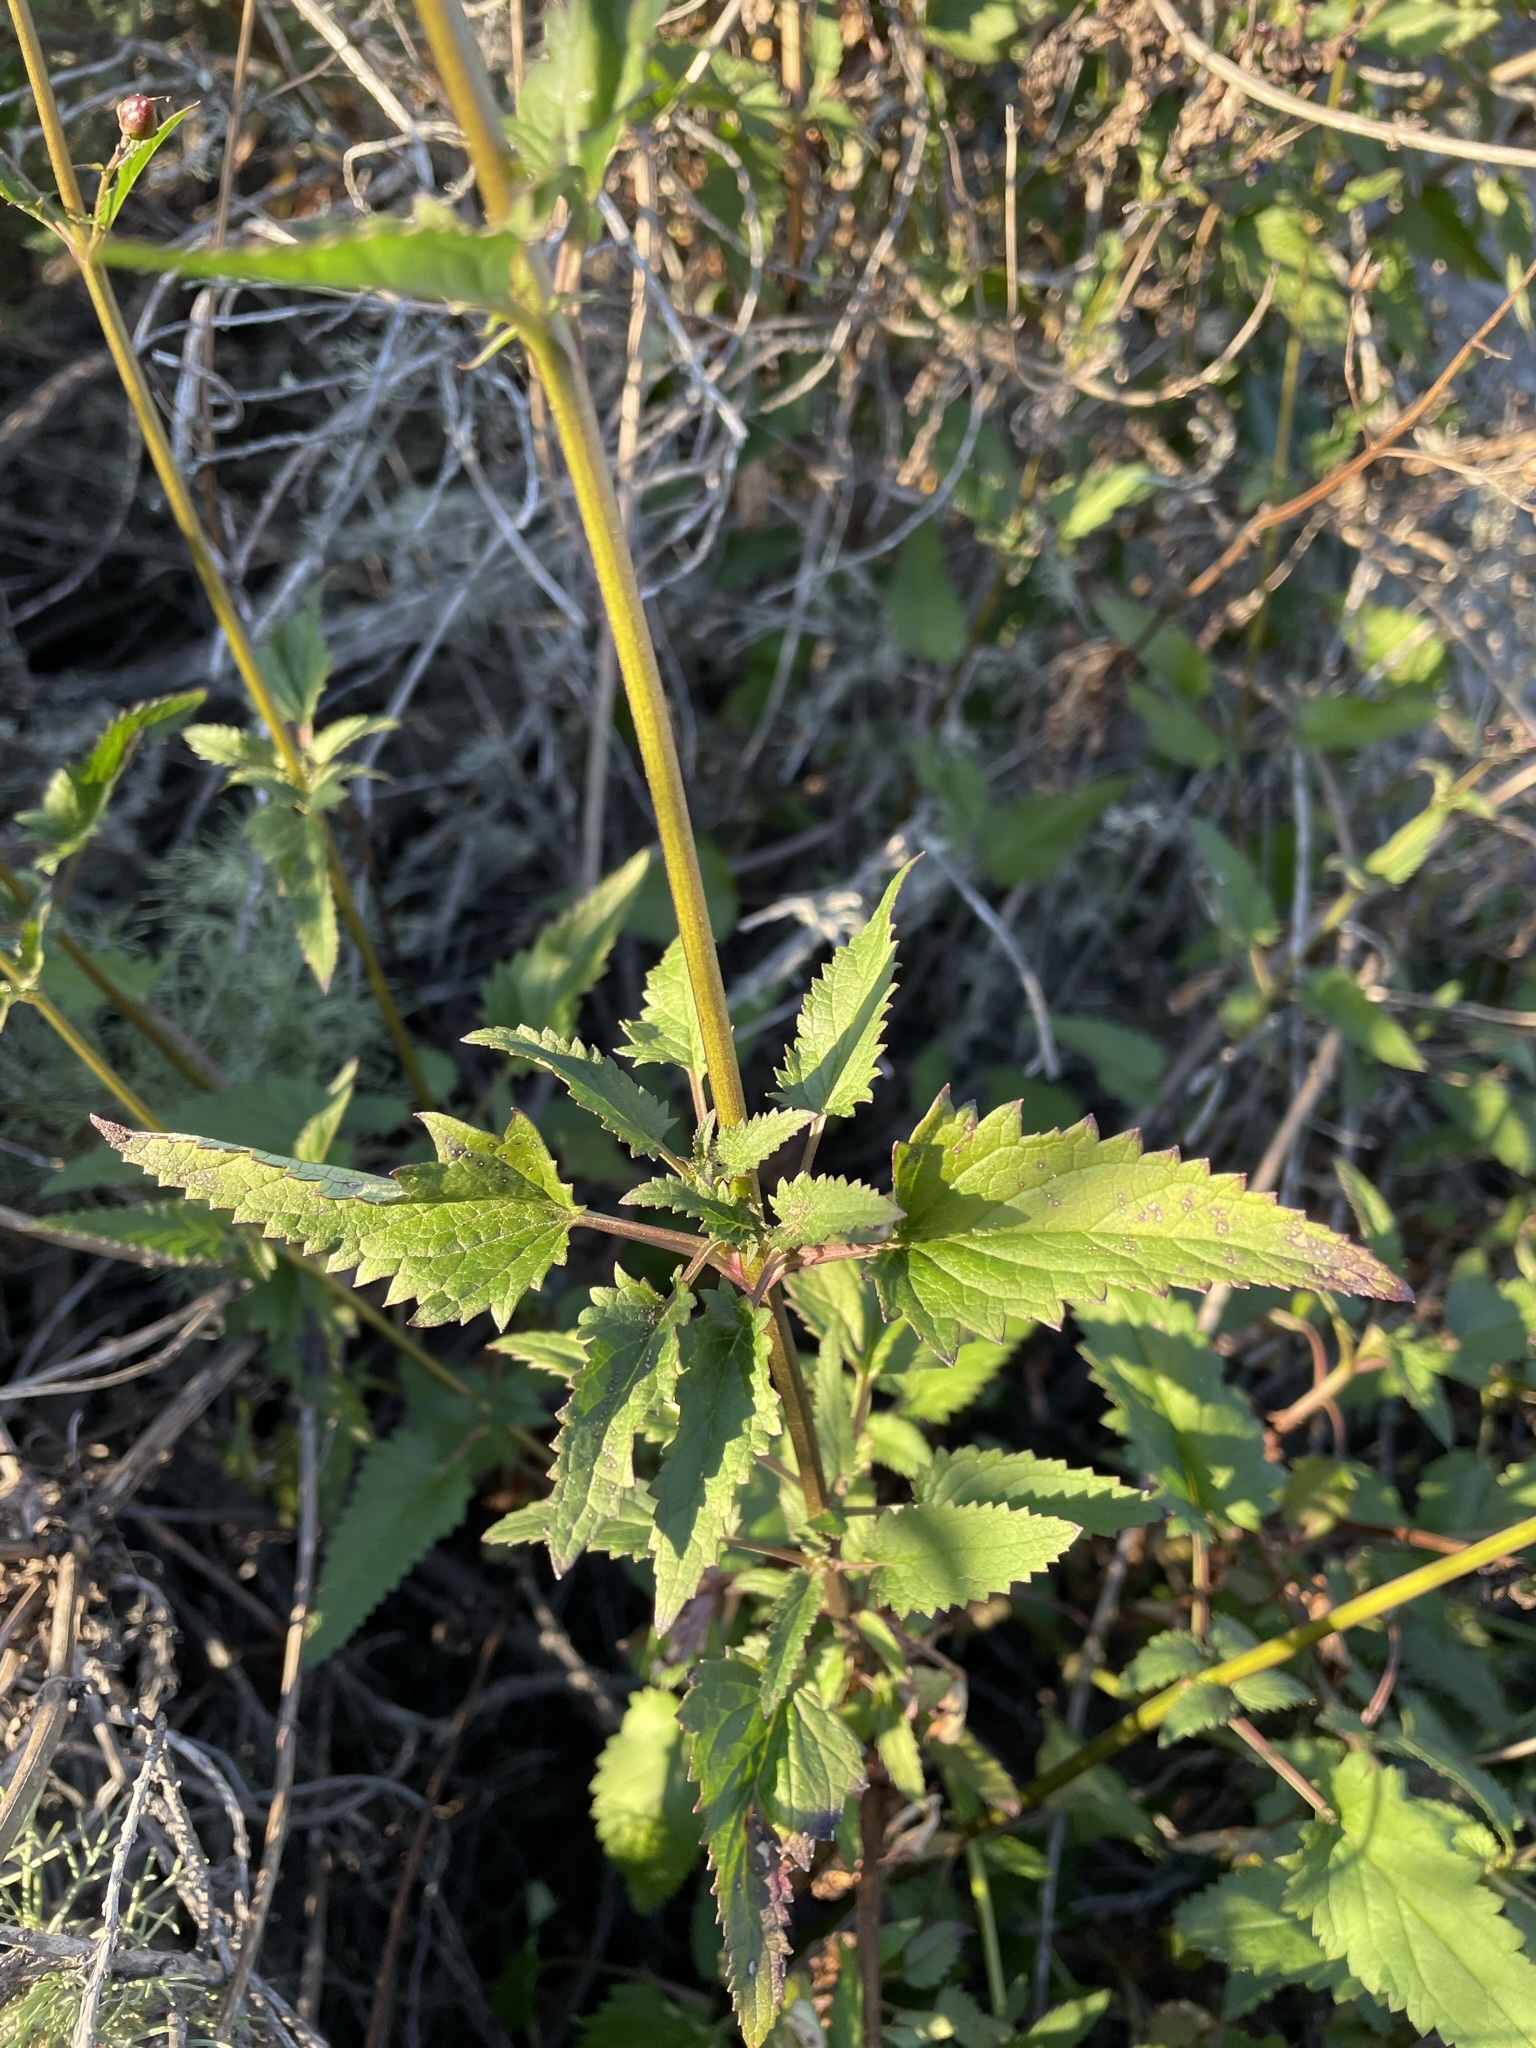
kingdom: Plantae
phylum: Tracheophyta
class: Magnoliopsida
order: Lamiales
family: Scrophulariaceae
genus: Scrophularia
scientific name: Scrophularia atrata
